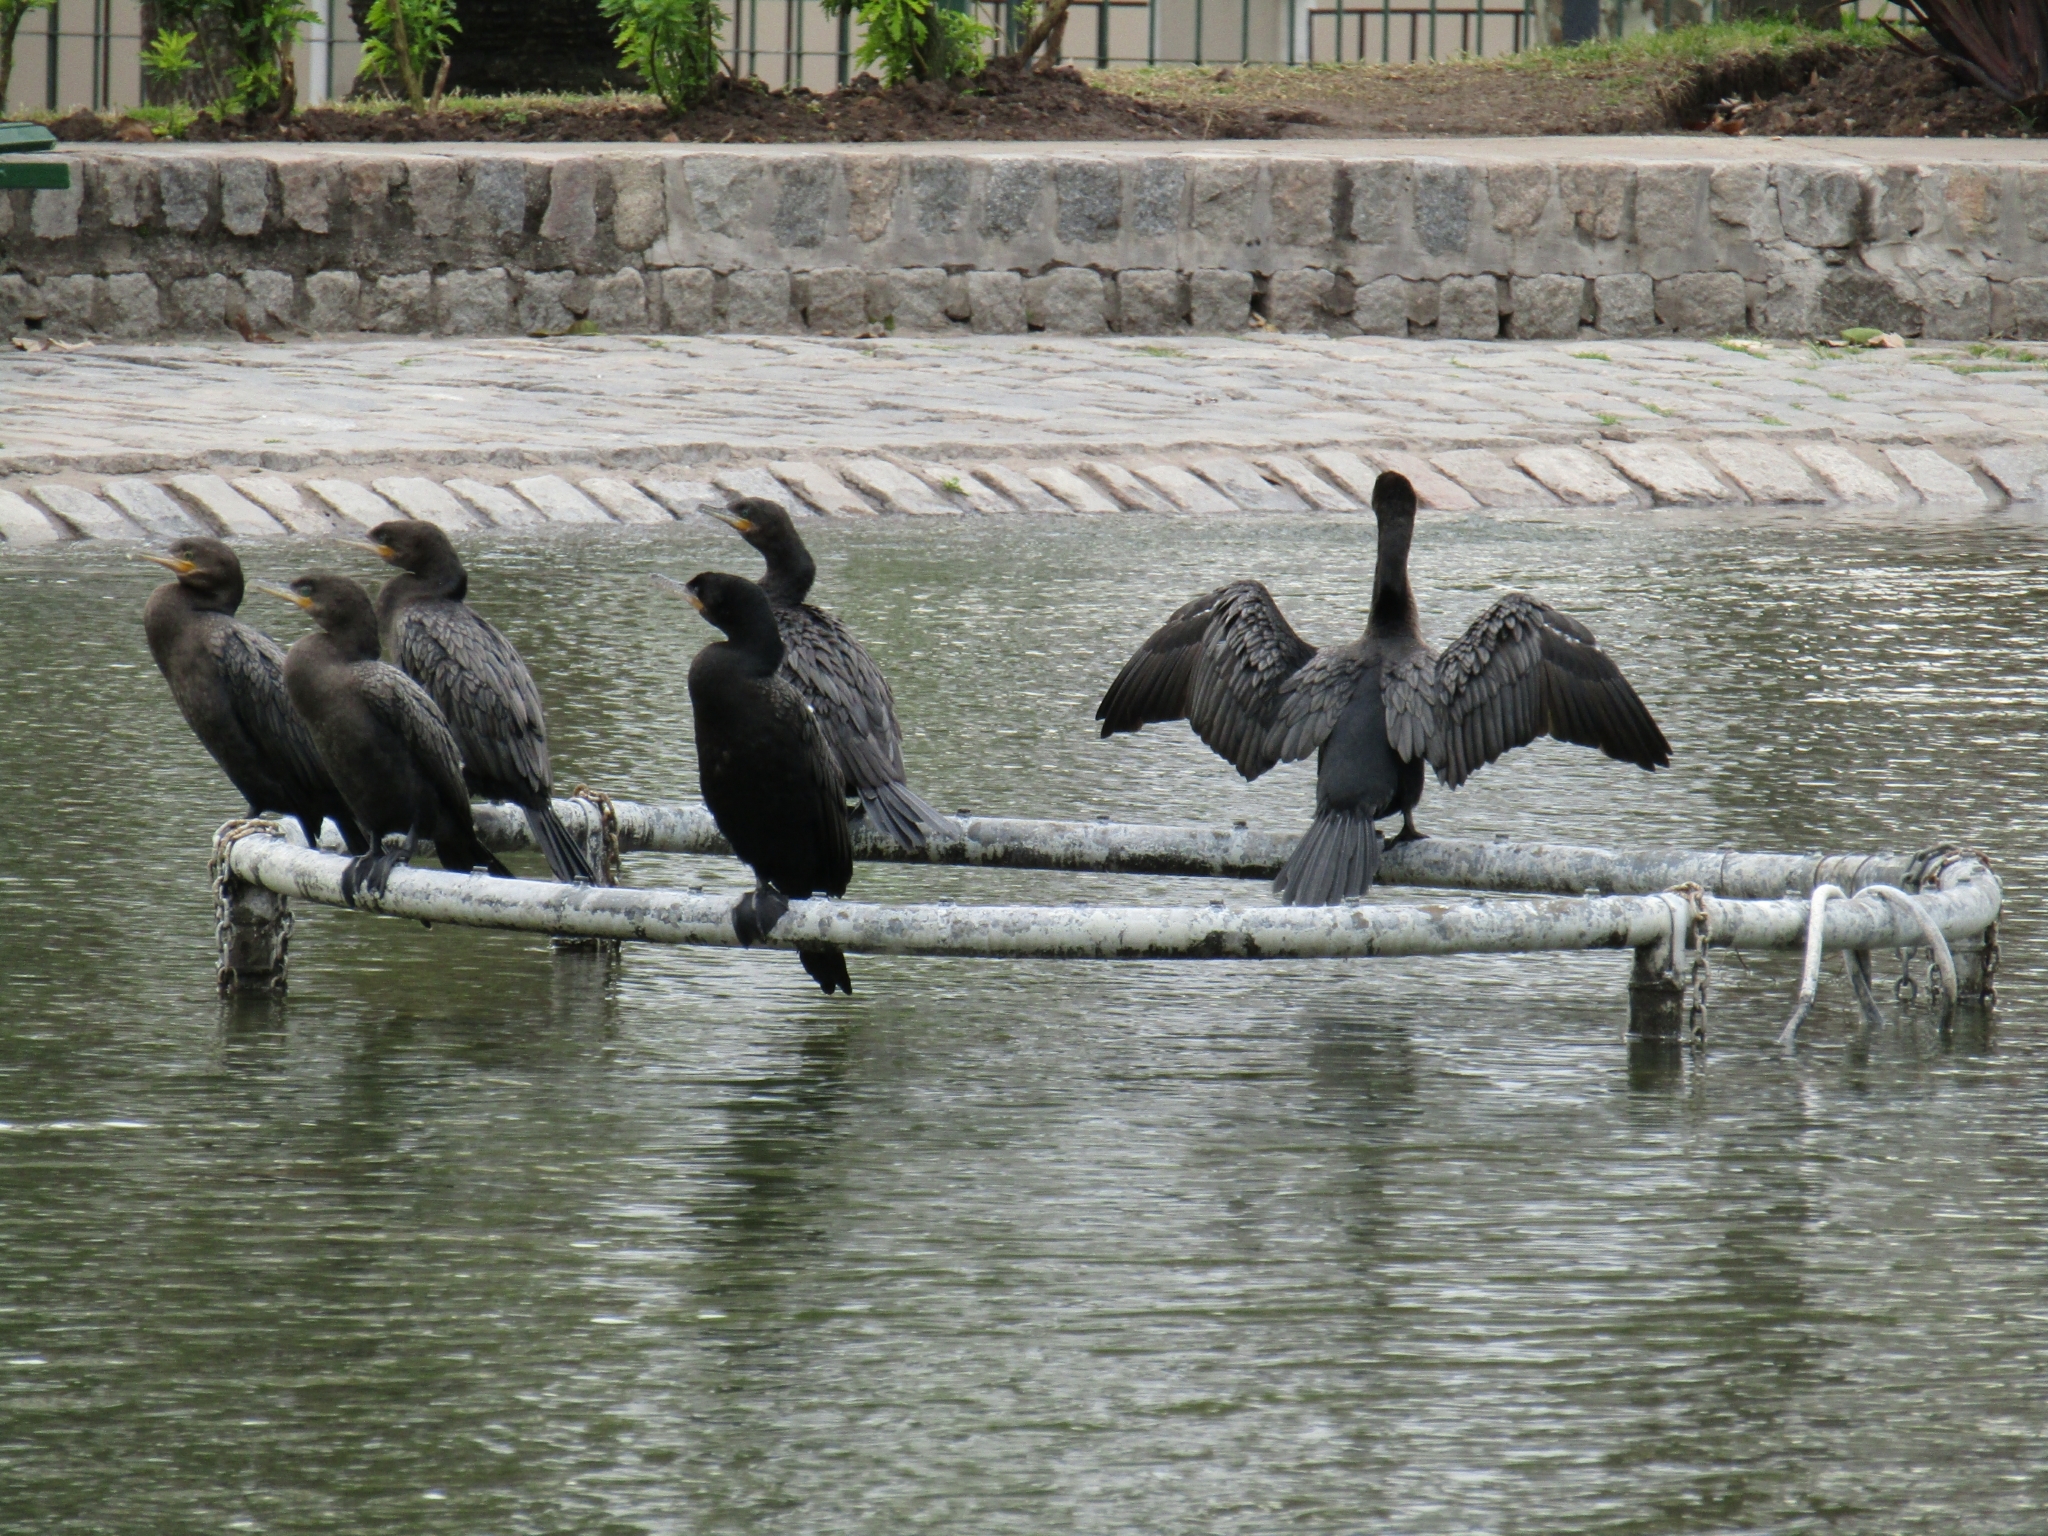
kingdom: Animalia
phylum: Chordata
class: Aves
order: Suliformes
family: Phalacrocoracidae
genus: Phalacrocorax
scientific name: Phalacrocorax brasilianus
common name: Neotropic cormorant
